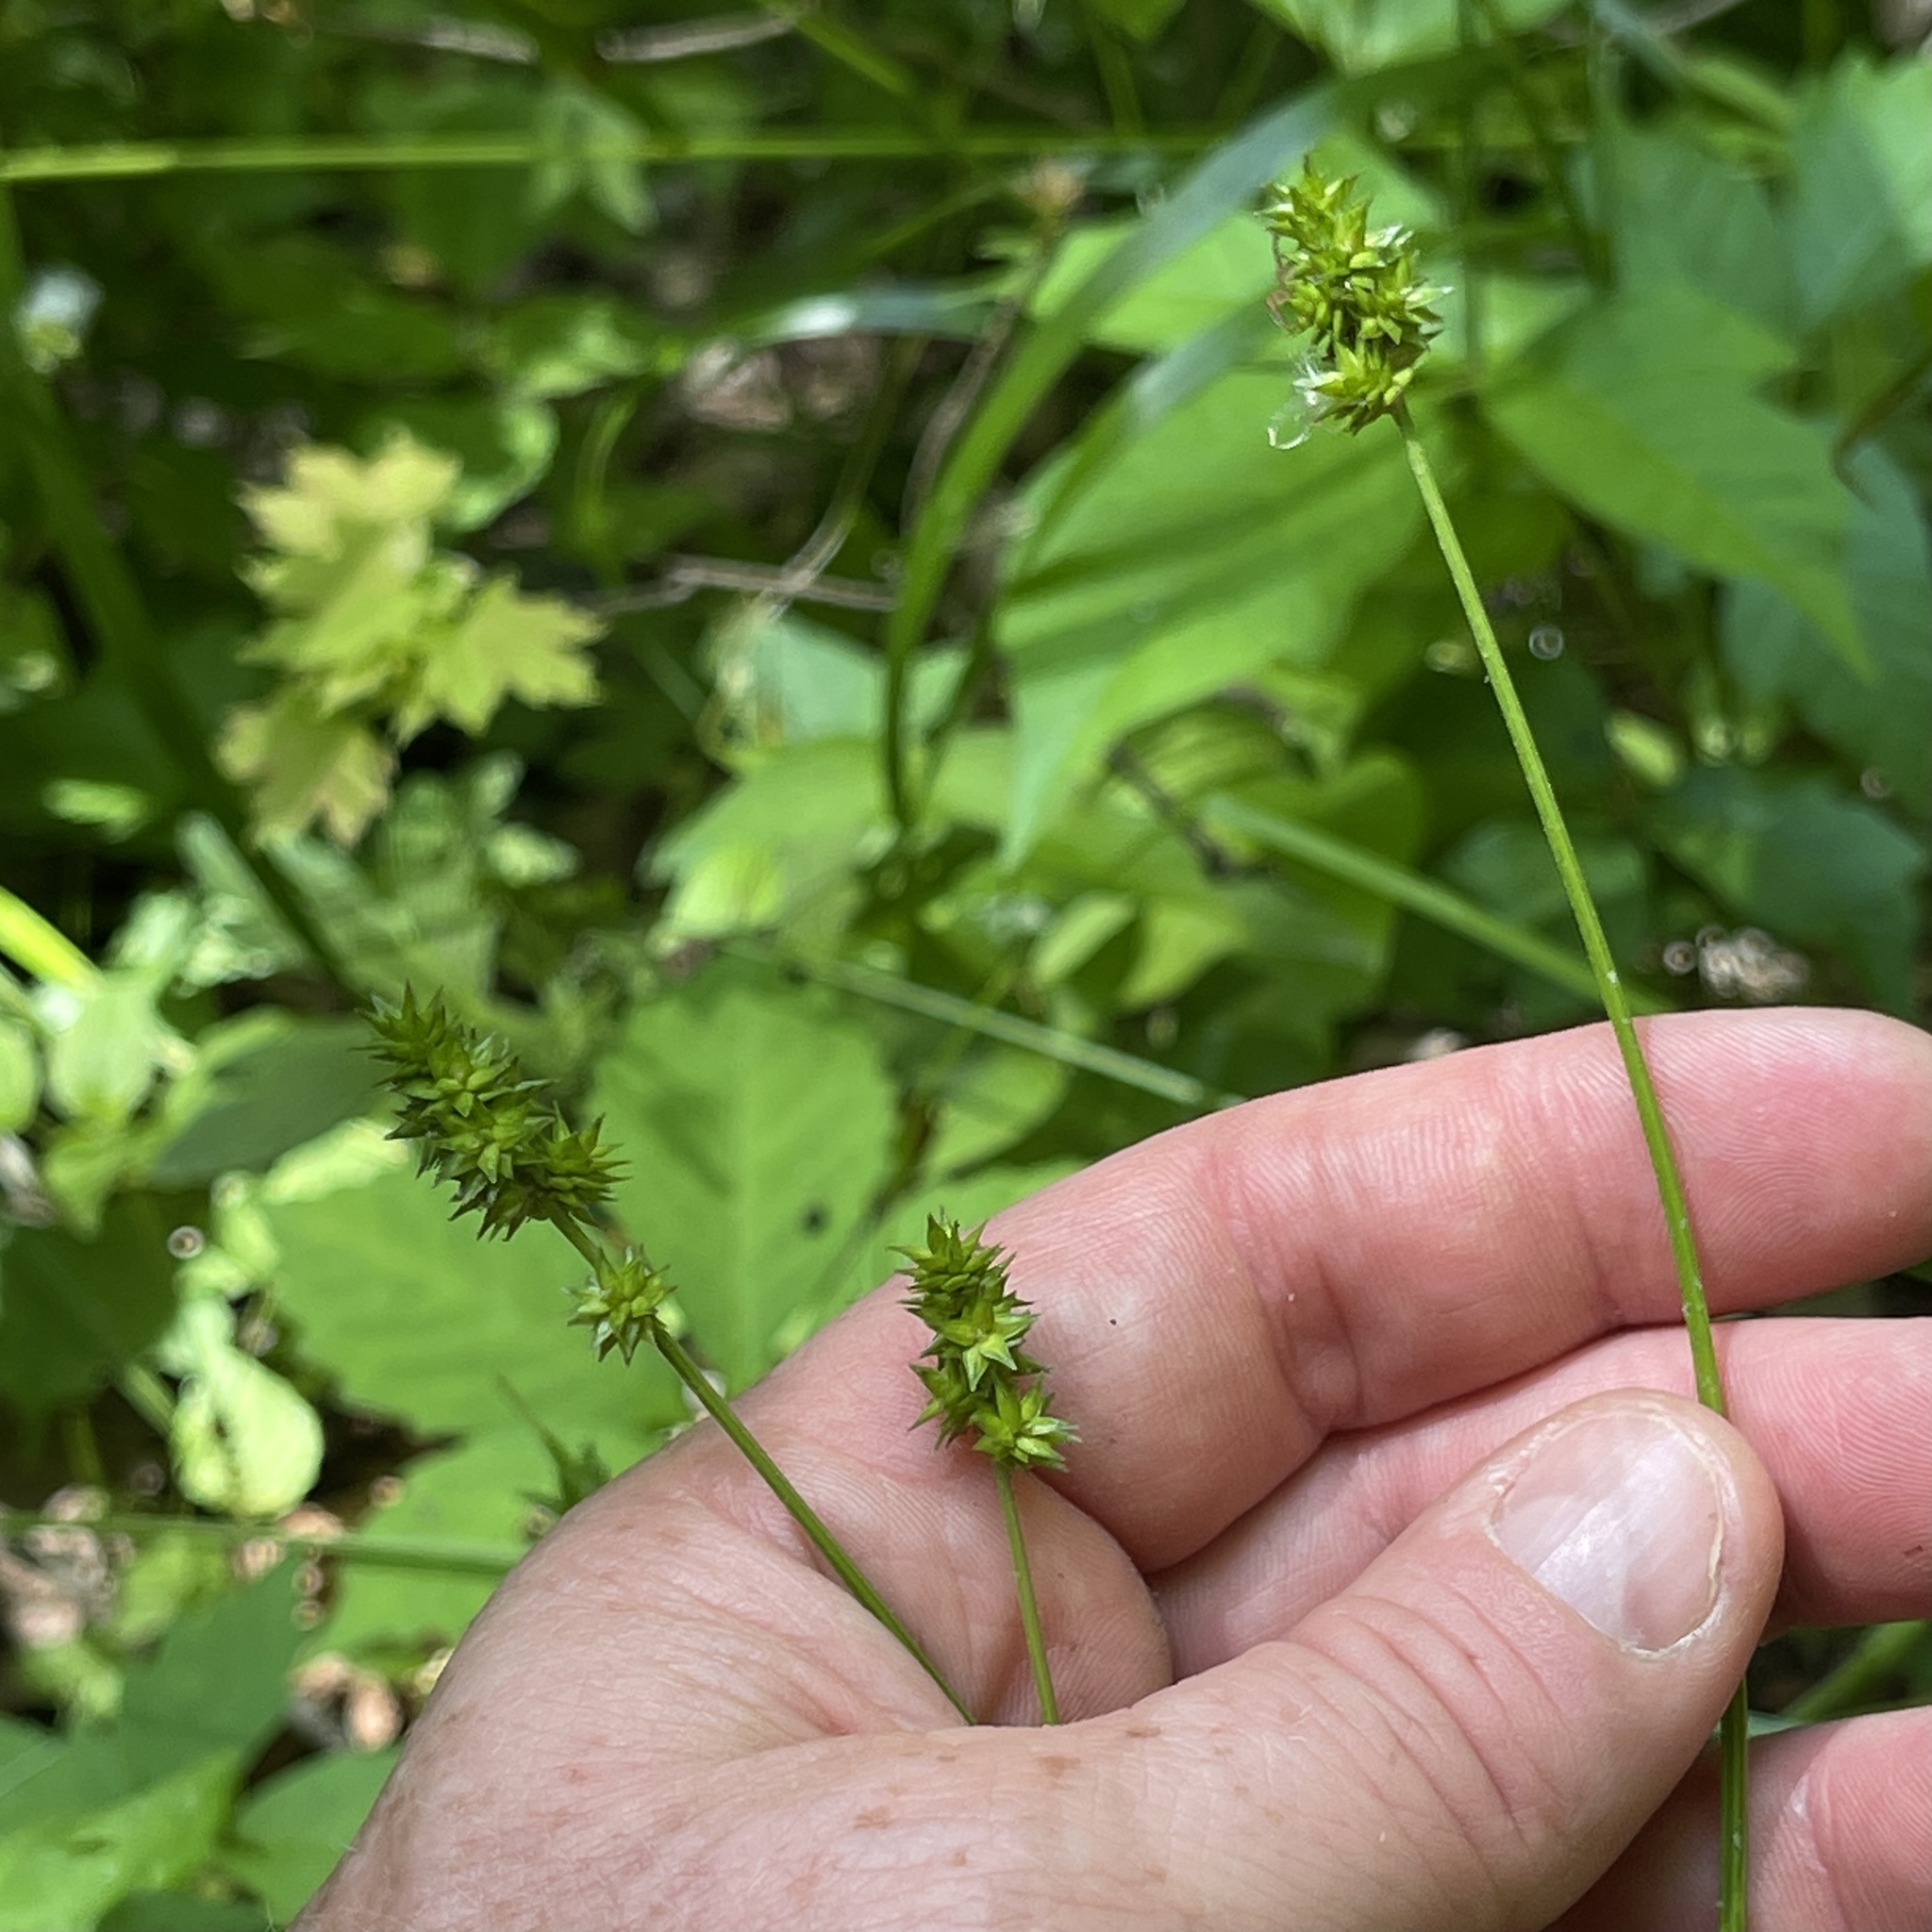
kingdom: Plantae
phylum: Tracheophyta
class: Liliopsida
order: Poales
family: Cyperaceae
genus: Carex
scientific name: Carex cephaloidea
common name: Thin-leaved sedge
